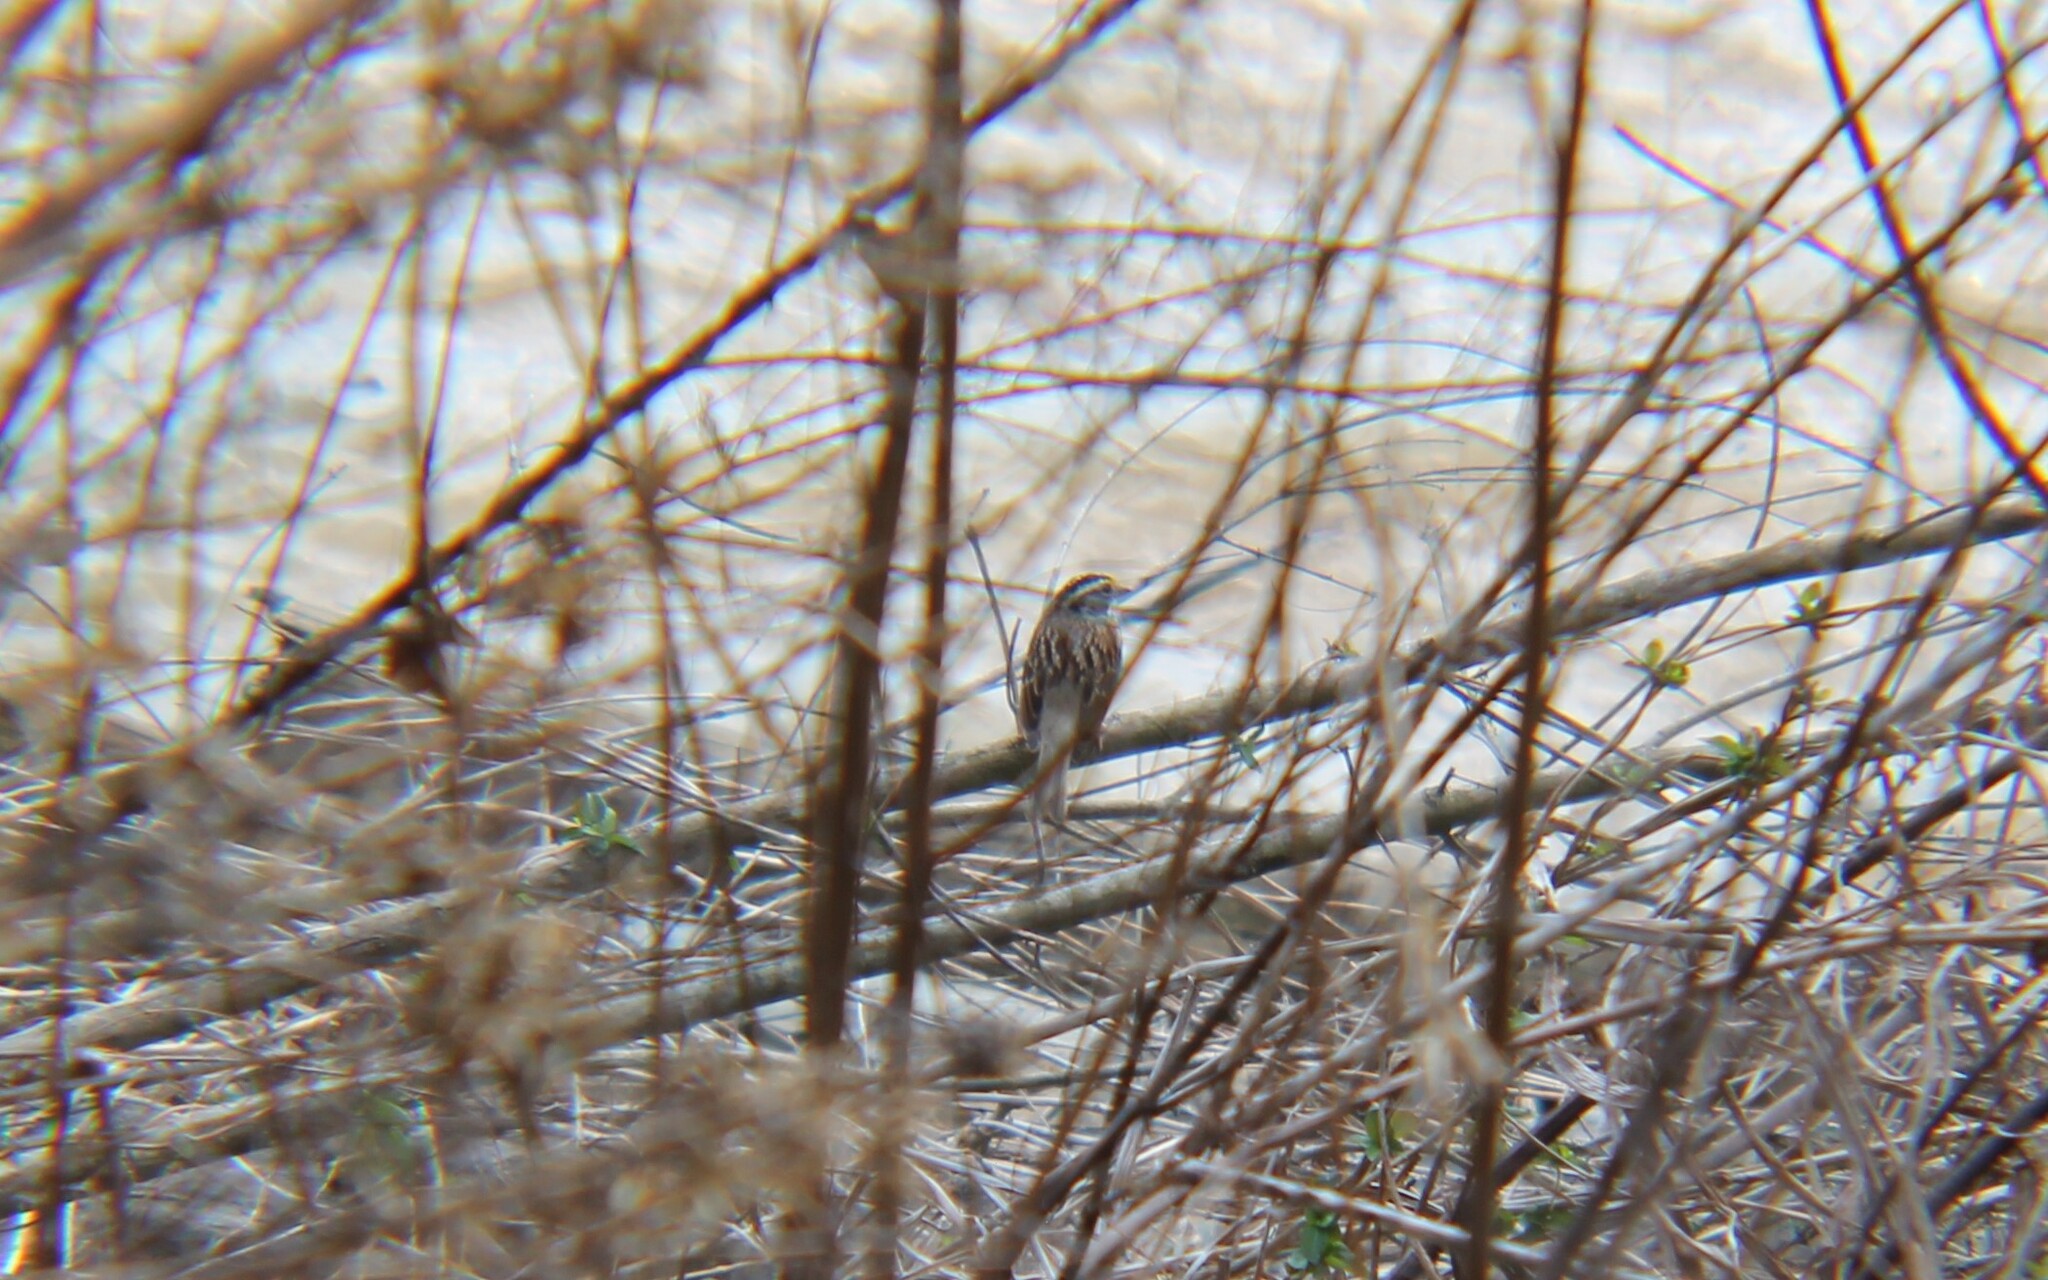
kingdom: Animalia
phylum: Chordata
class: Aves
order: Passeriformes
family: Passerellidae
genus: Zonotrichia
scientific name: Zonotrichia albicollis
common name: White-throated sparrow
